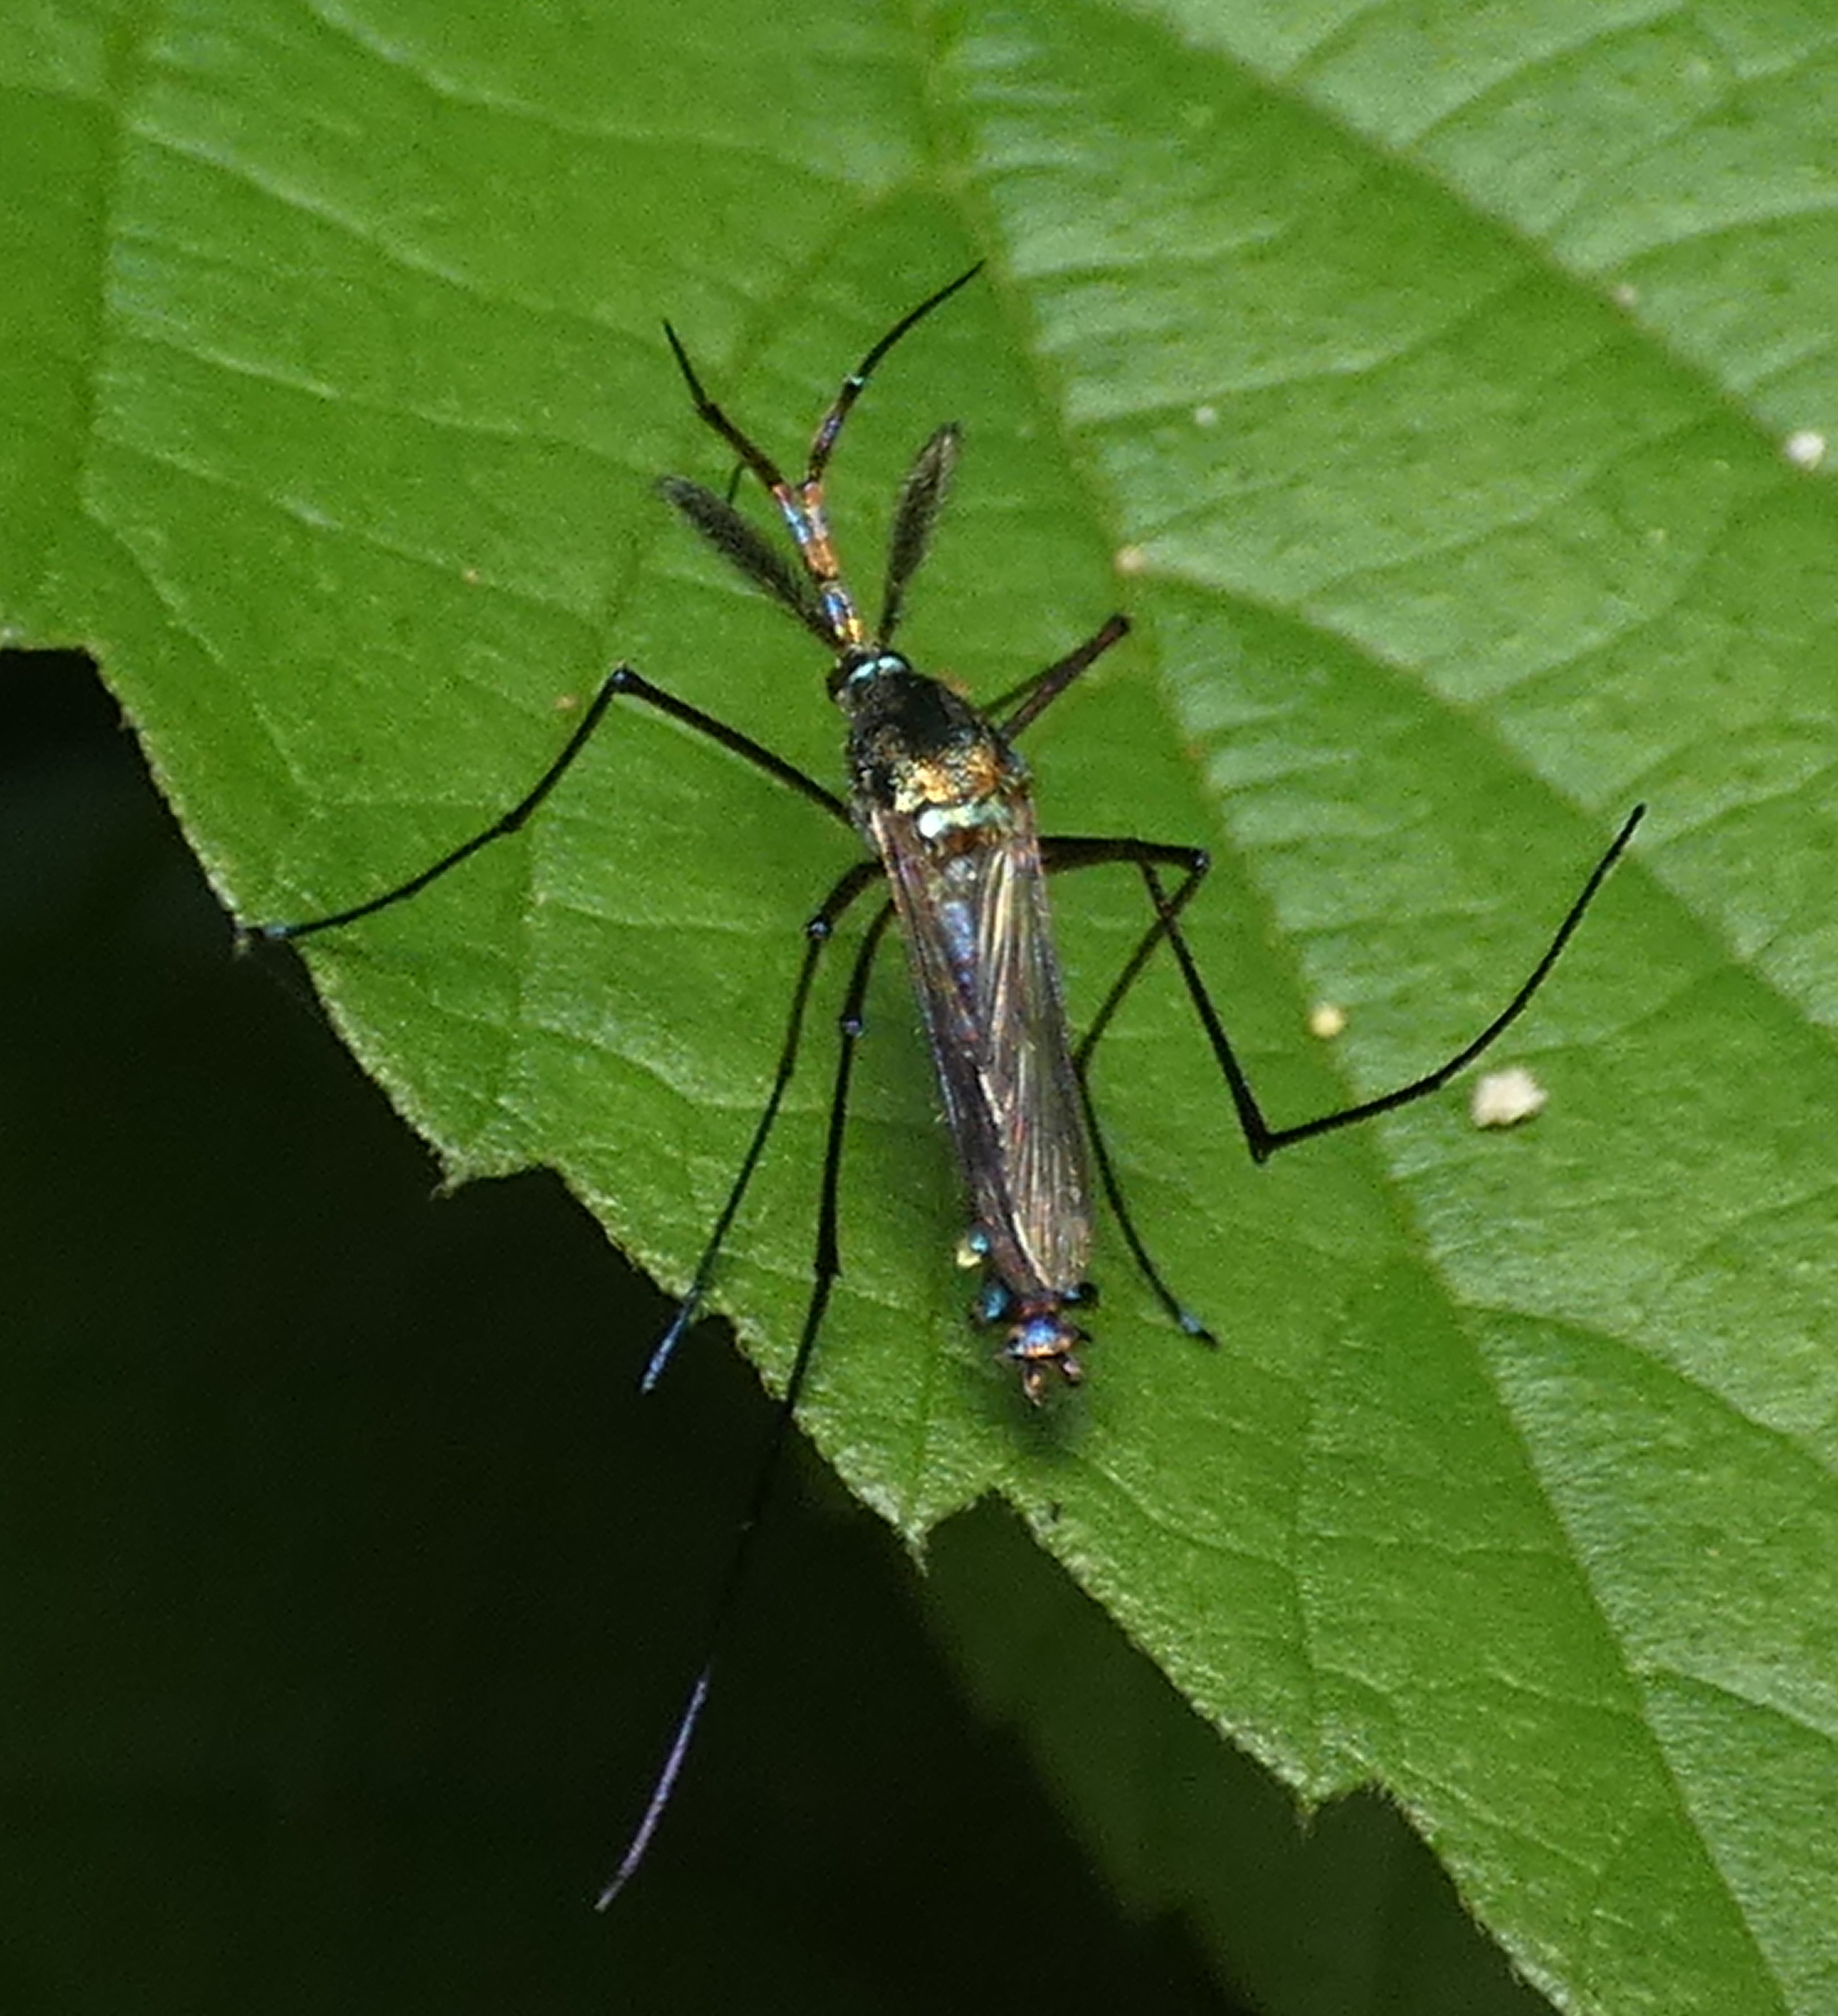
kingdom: Animalia
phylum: Arthropoda
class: Insecta
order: Diptera
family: Culicidae
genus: Toxorhynchites
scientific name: Toxorhynchites violaceus
